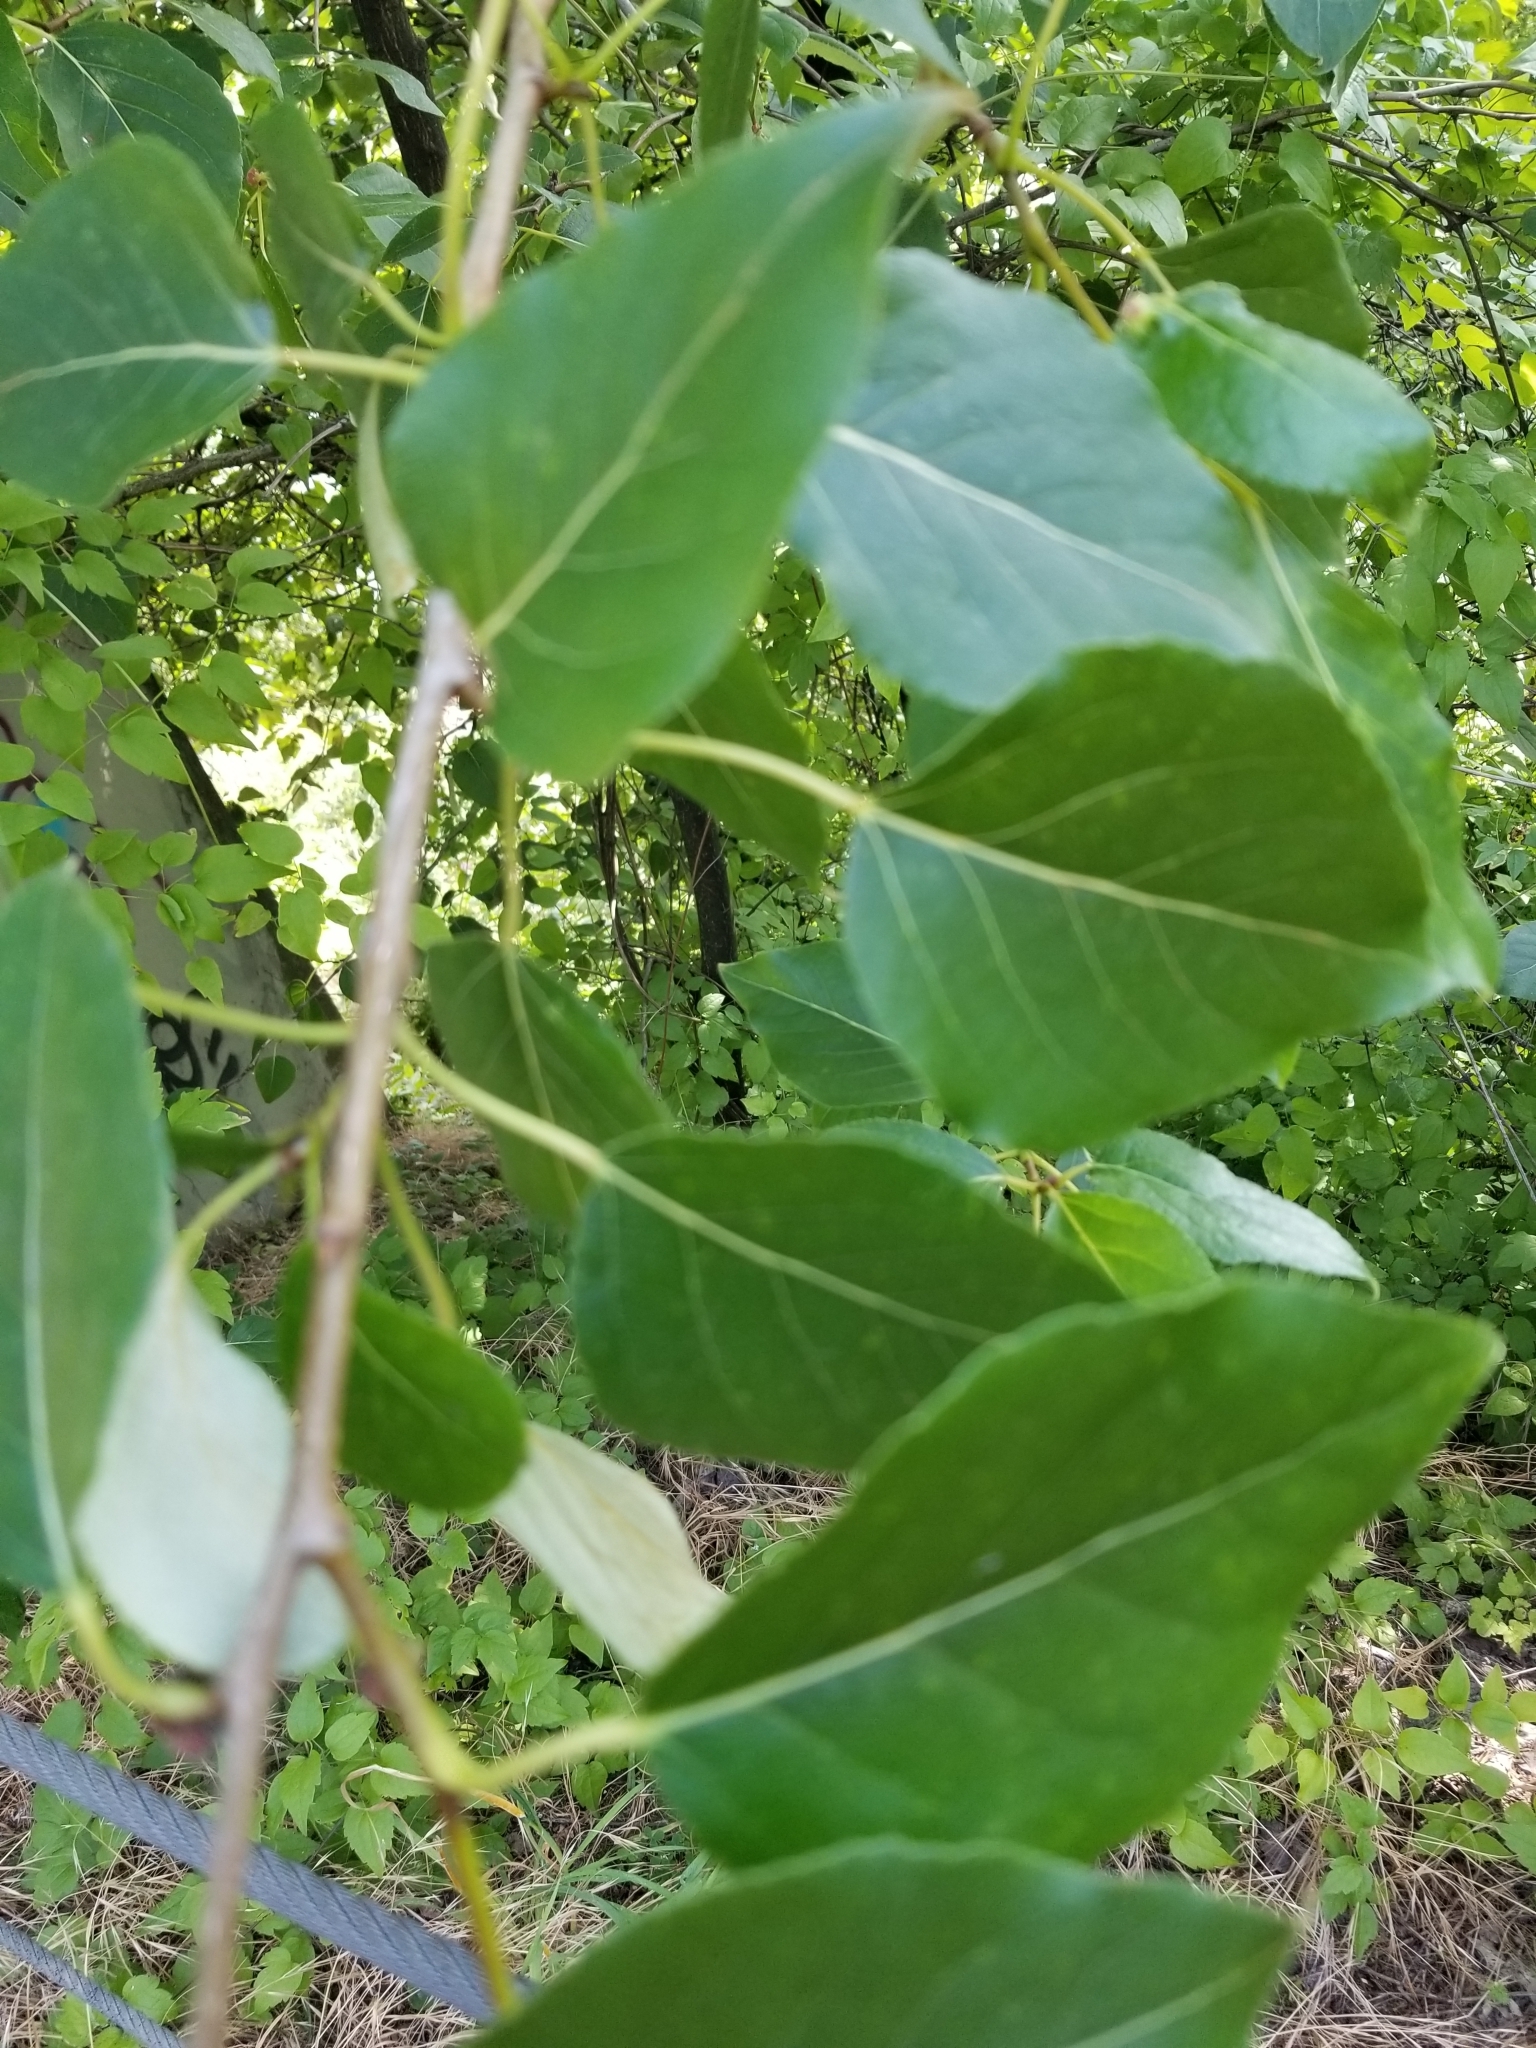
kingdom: Plantae
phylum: Tracheophyta
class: Magnoliopsida
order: Malpighiales
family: Salicaceae
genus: Populus
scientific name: Populus trichocarpa
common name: Black cottonwood
